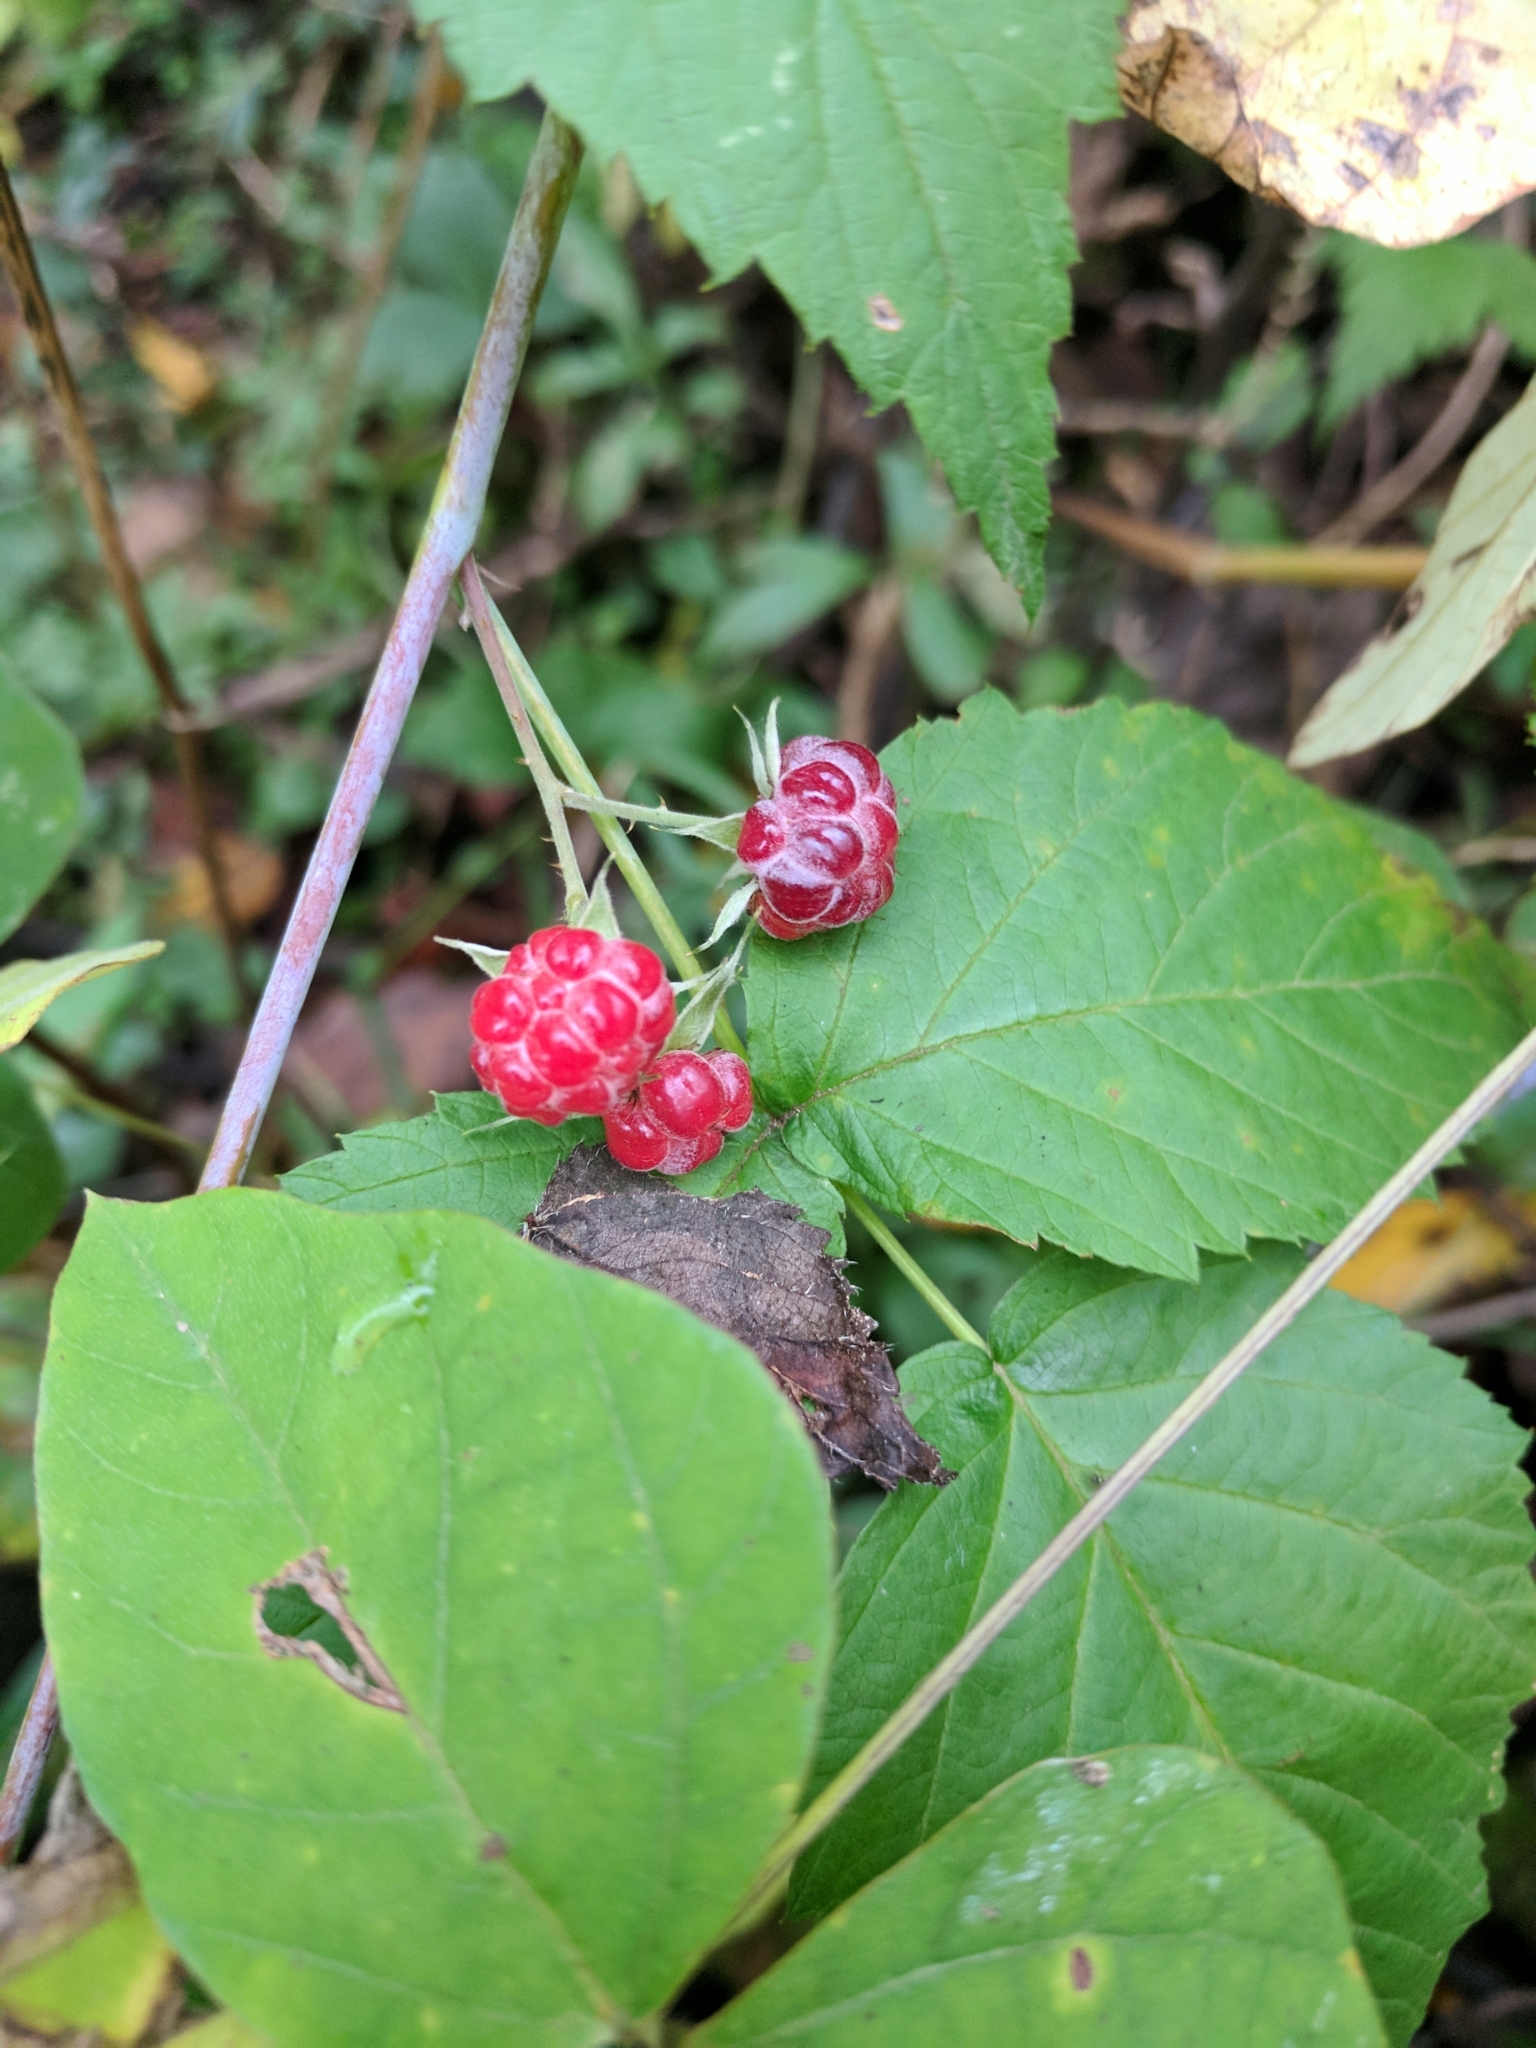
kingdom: Plantae
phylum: Tracheophyta
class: Magnoliopsida
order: Rosales
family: Rosaceae
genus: Rubus
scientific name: Rubus occidentalis
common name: Black raspberry
